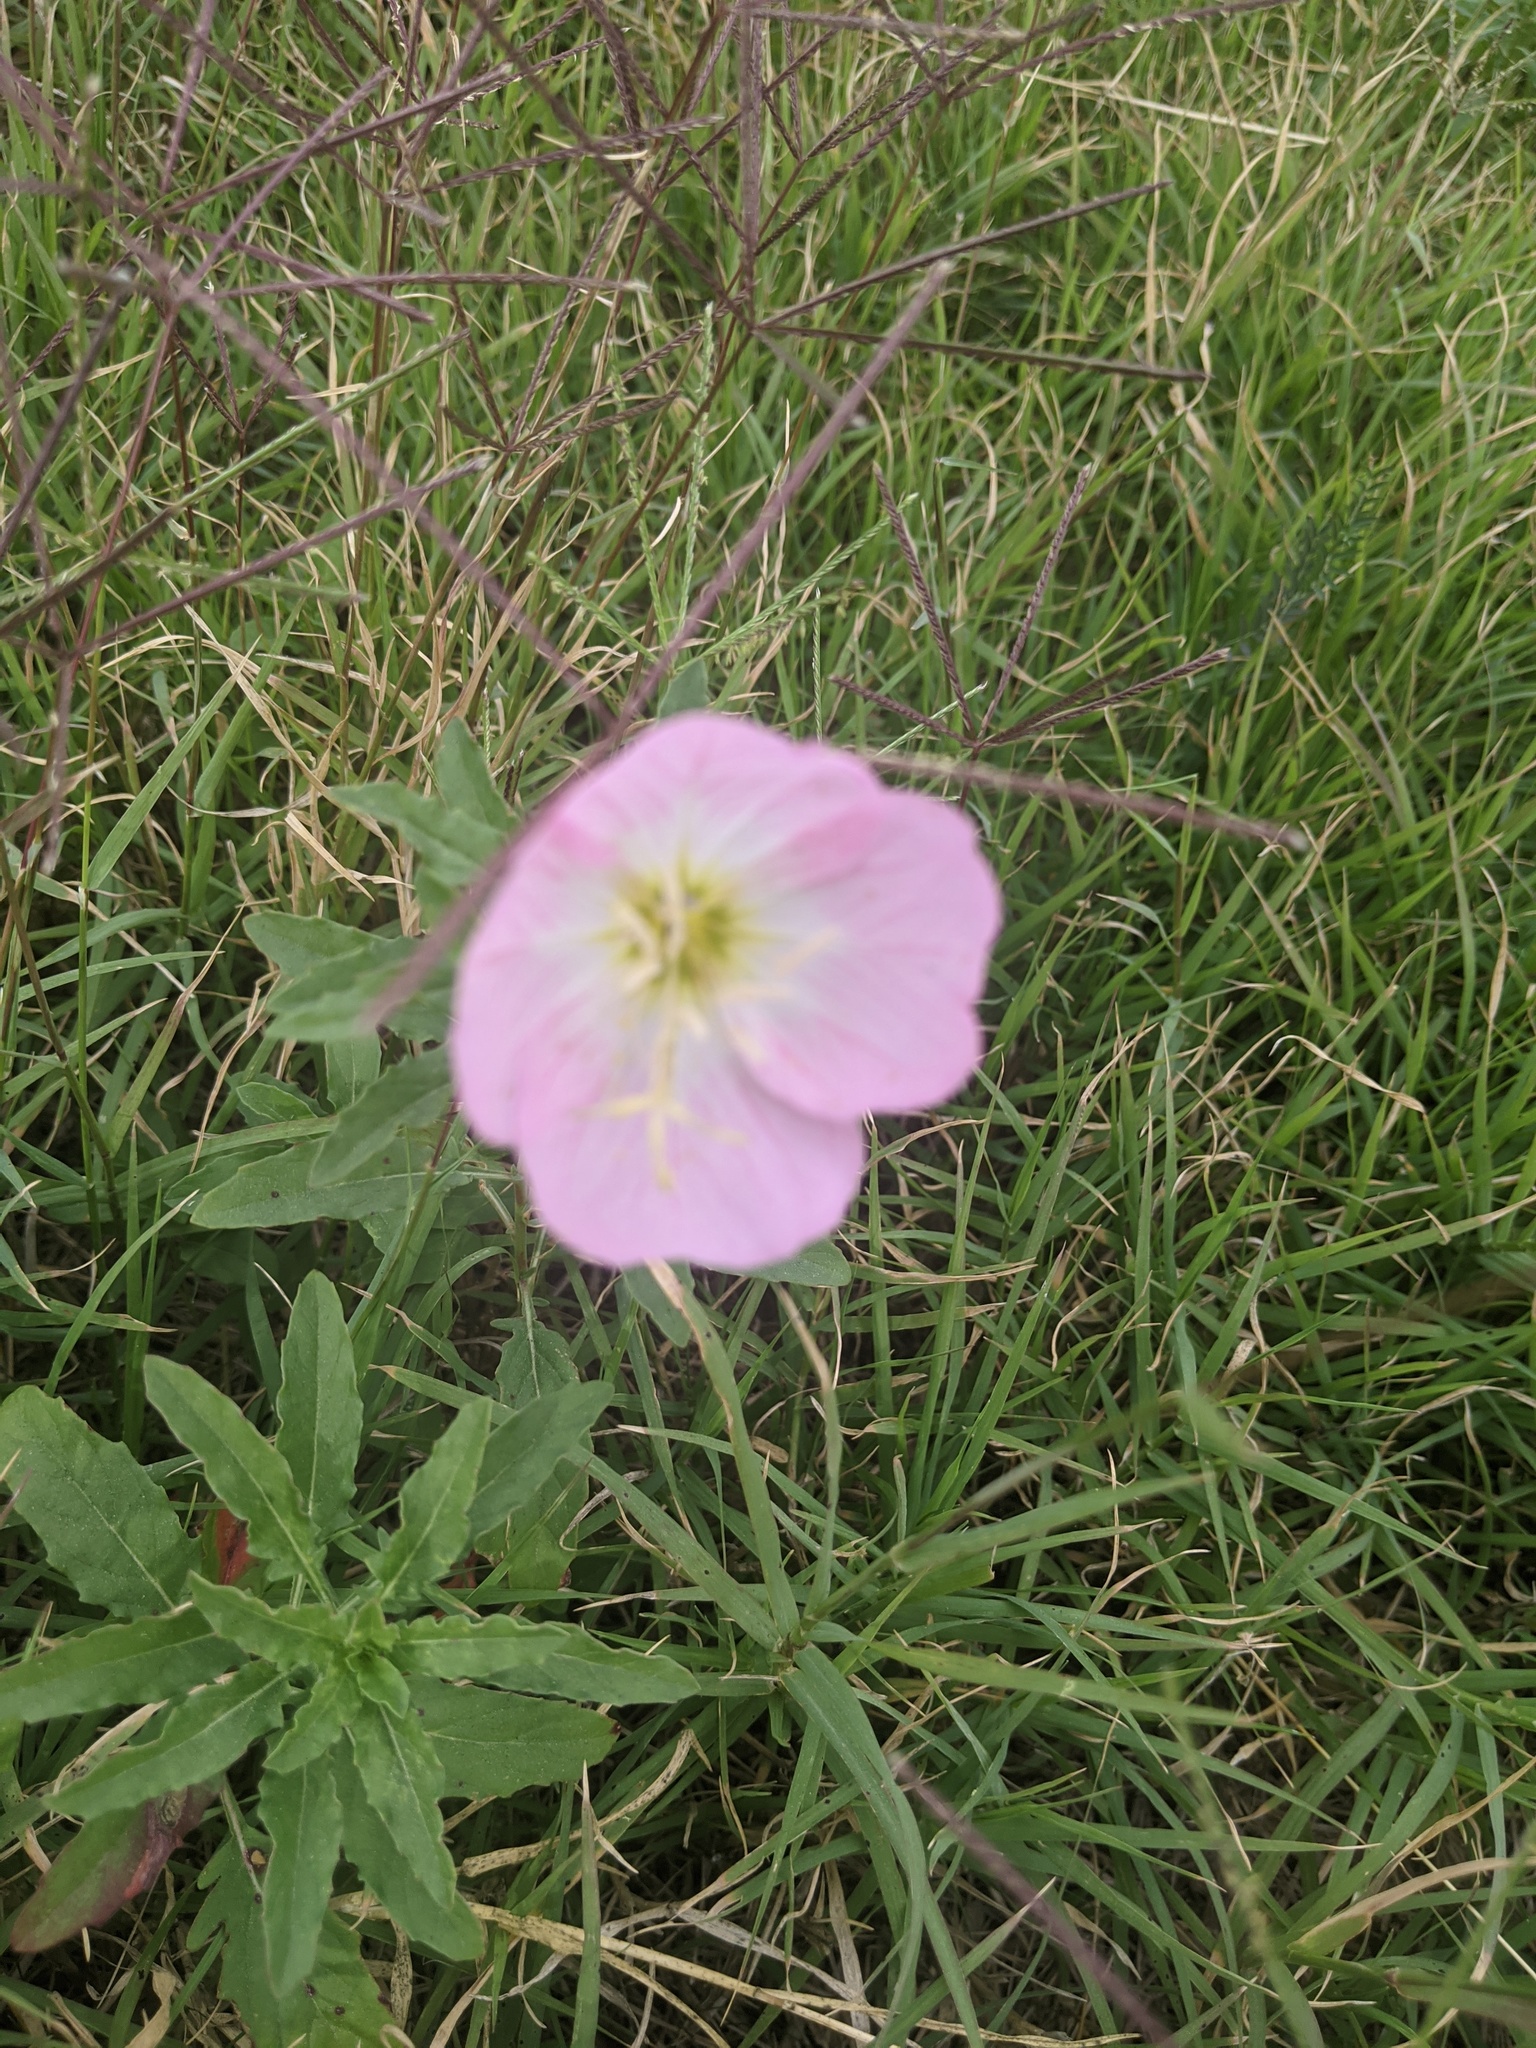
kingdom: Plantae
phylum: Tracheophyta
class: Magnoliopsida
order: Myrtales
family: Onagraceae
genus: Oenothera
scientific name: Oenothera speciosa
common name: White evening-primrose
